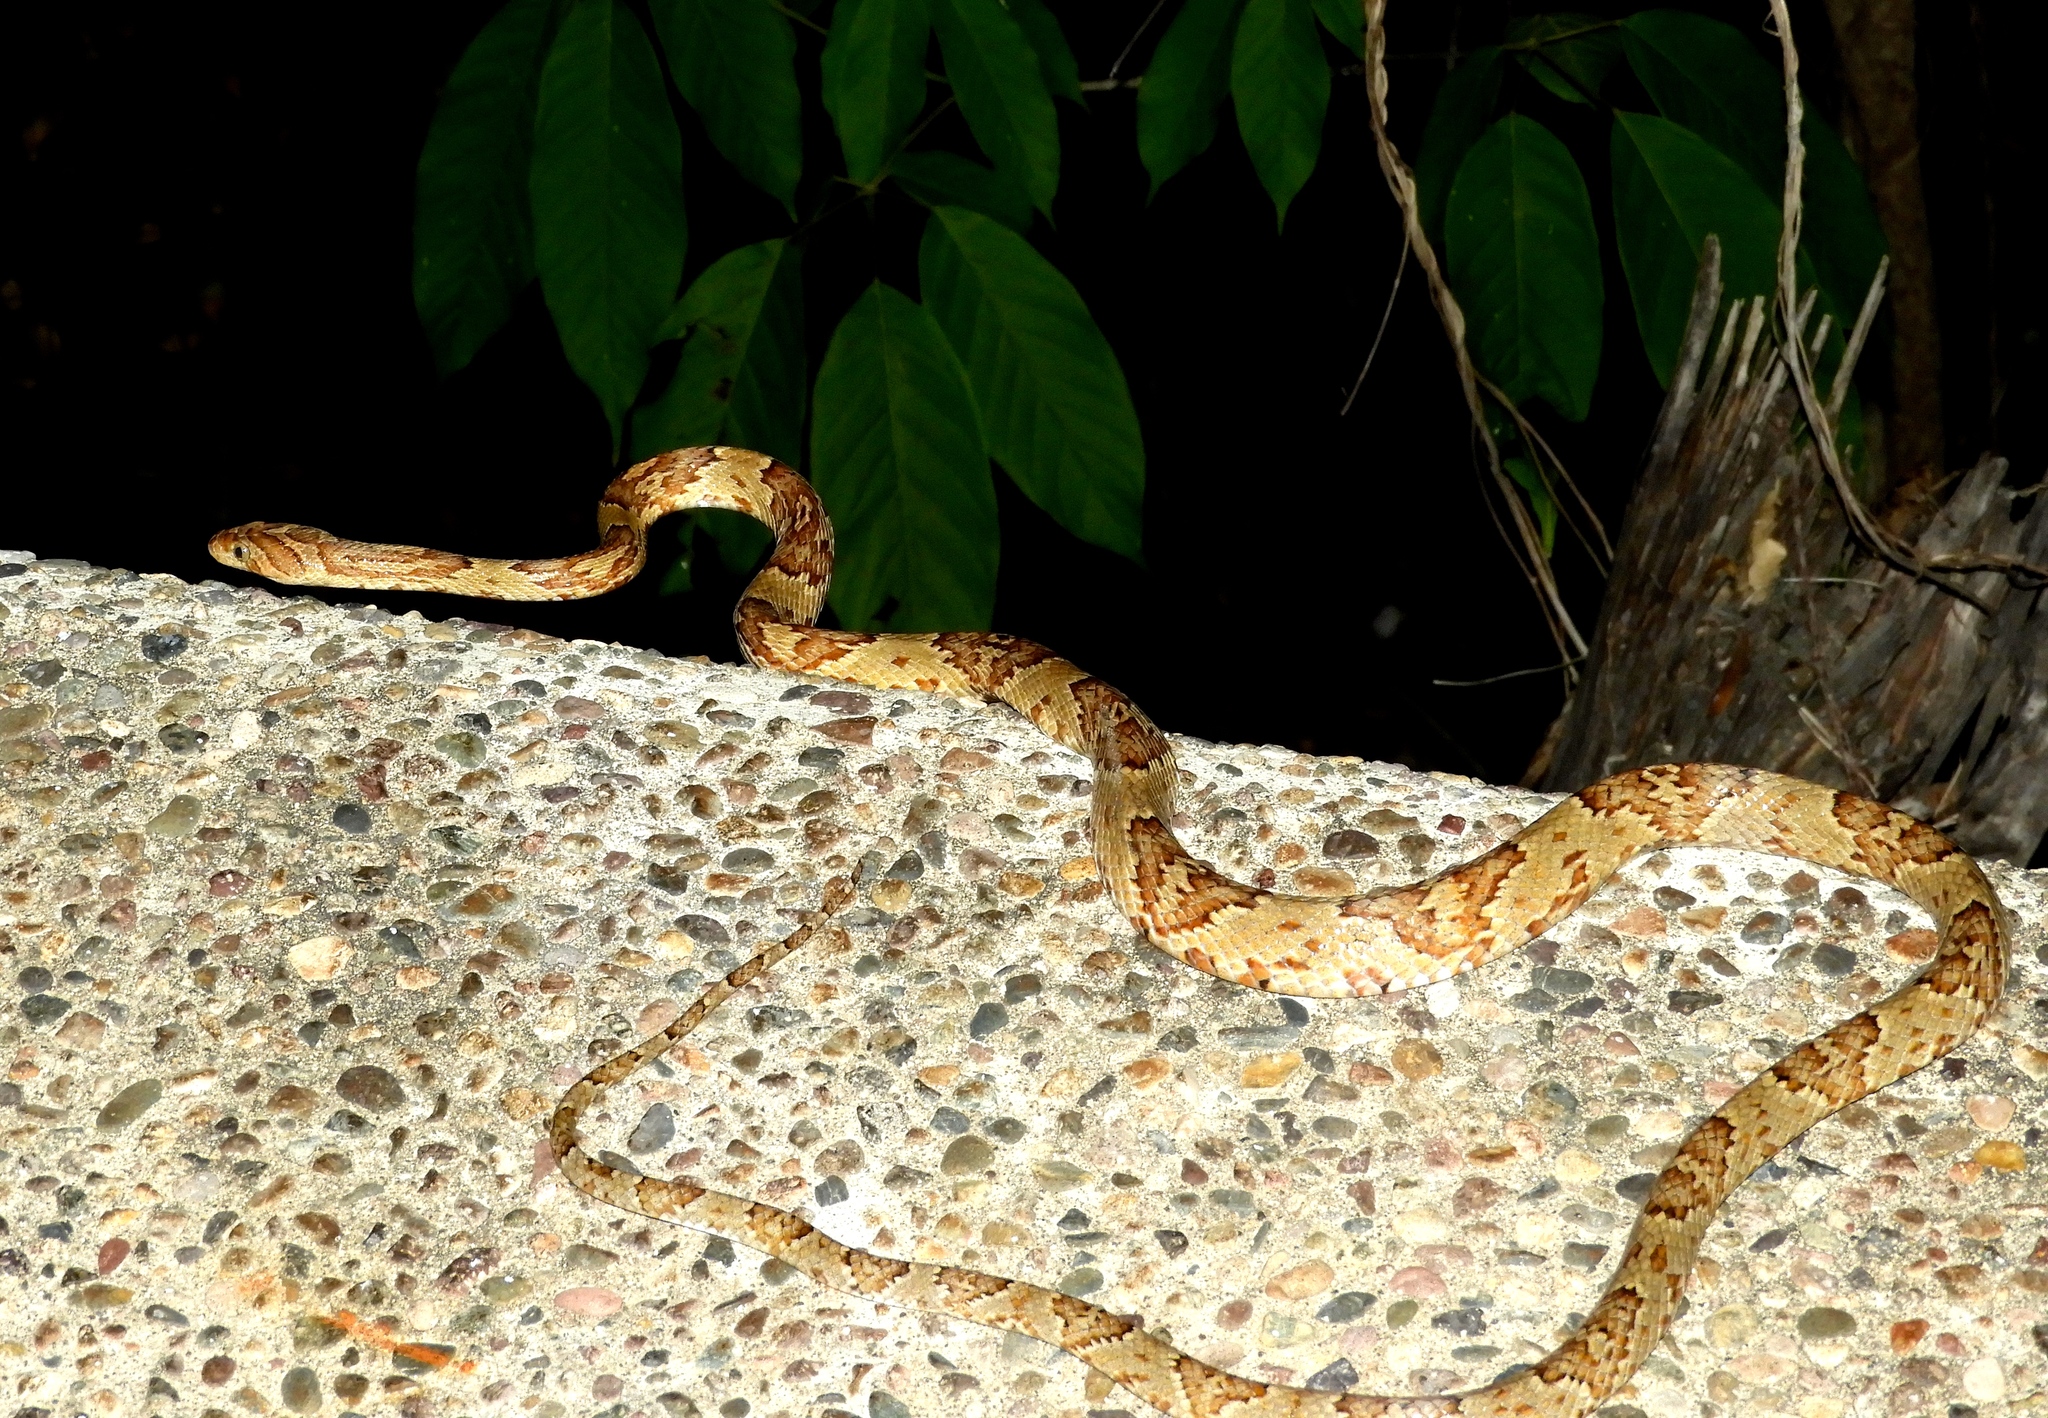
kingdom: Animalia
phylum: Chordata
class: Squamata
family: Colubridae
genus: Trimorphodon
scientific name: Trimorphodon paucimaculatus
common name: Sinaloan lyresnake
